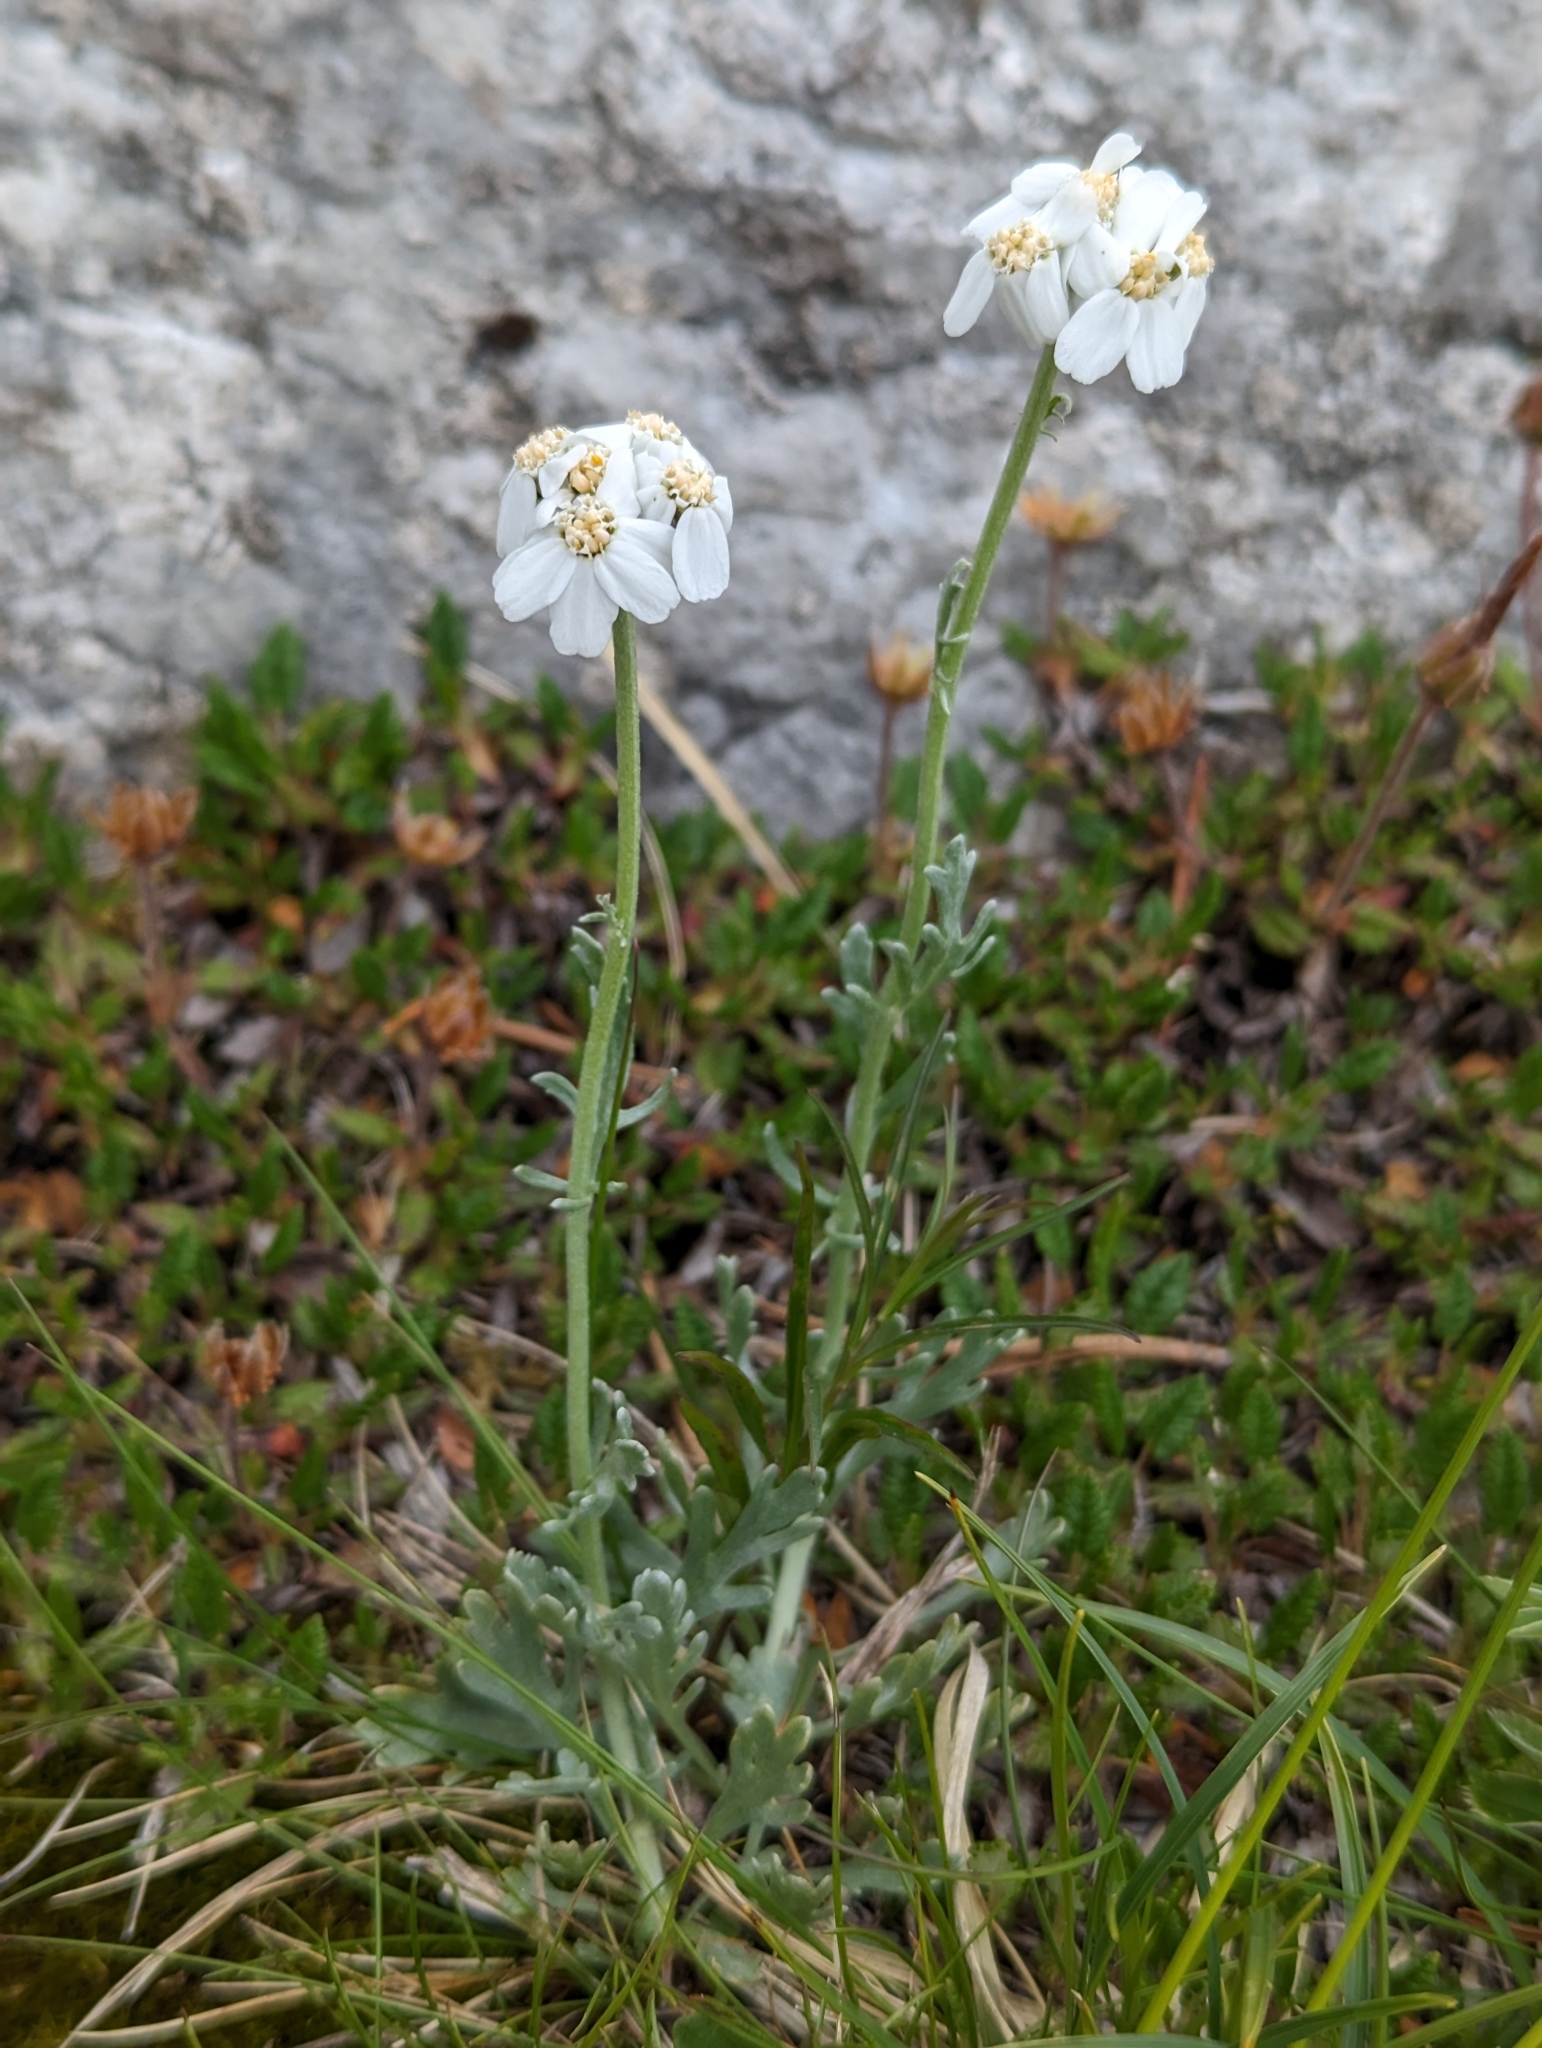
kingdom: Plantae
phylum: Tracheophyta
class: Magnoliopsida
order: Asterales
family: Asteraceae
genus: Achillea
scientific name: Achillea clavennae
